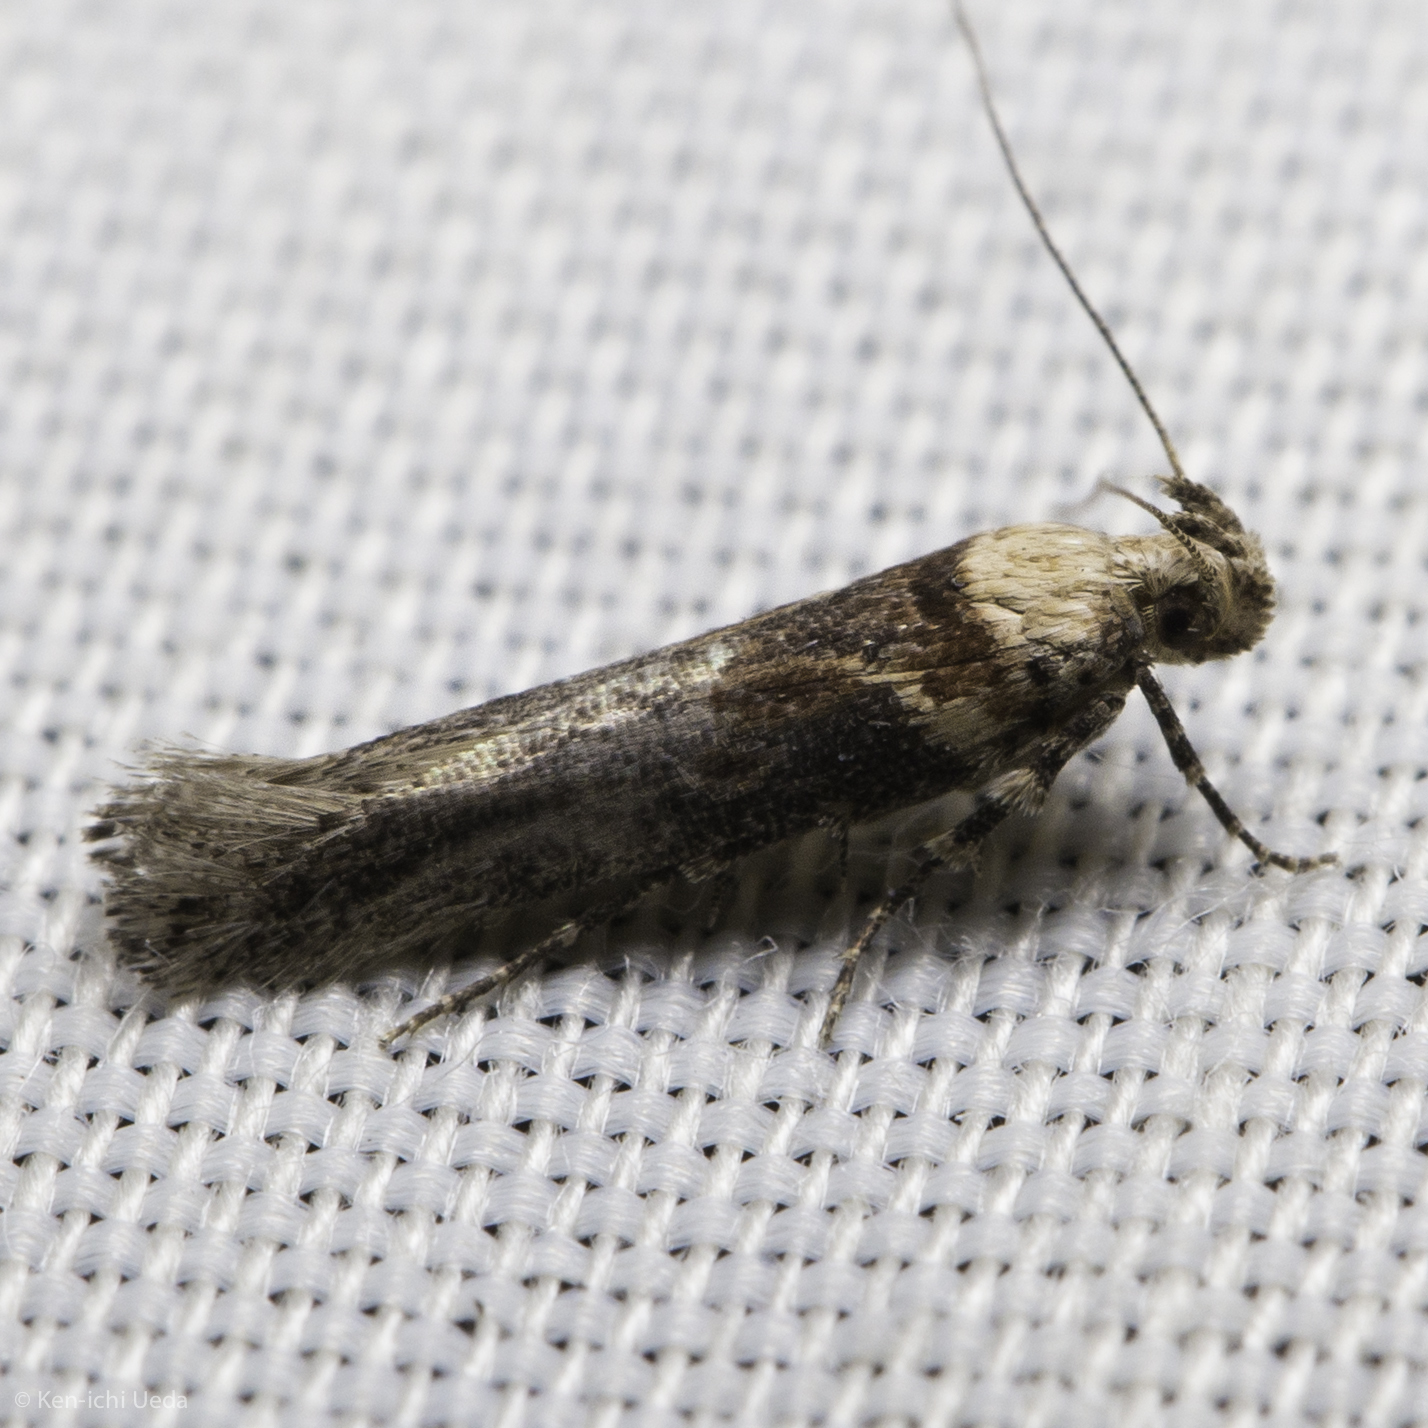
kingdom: Animalia
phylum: Arthropoda
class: Insecta
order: Lepidoptera
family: Gelechiidae
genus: Gnorimoschema
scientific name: Gnorimoschema baccharisella
